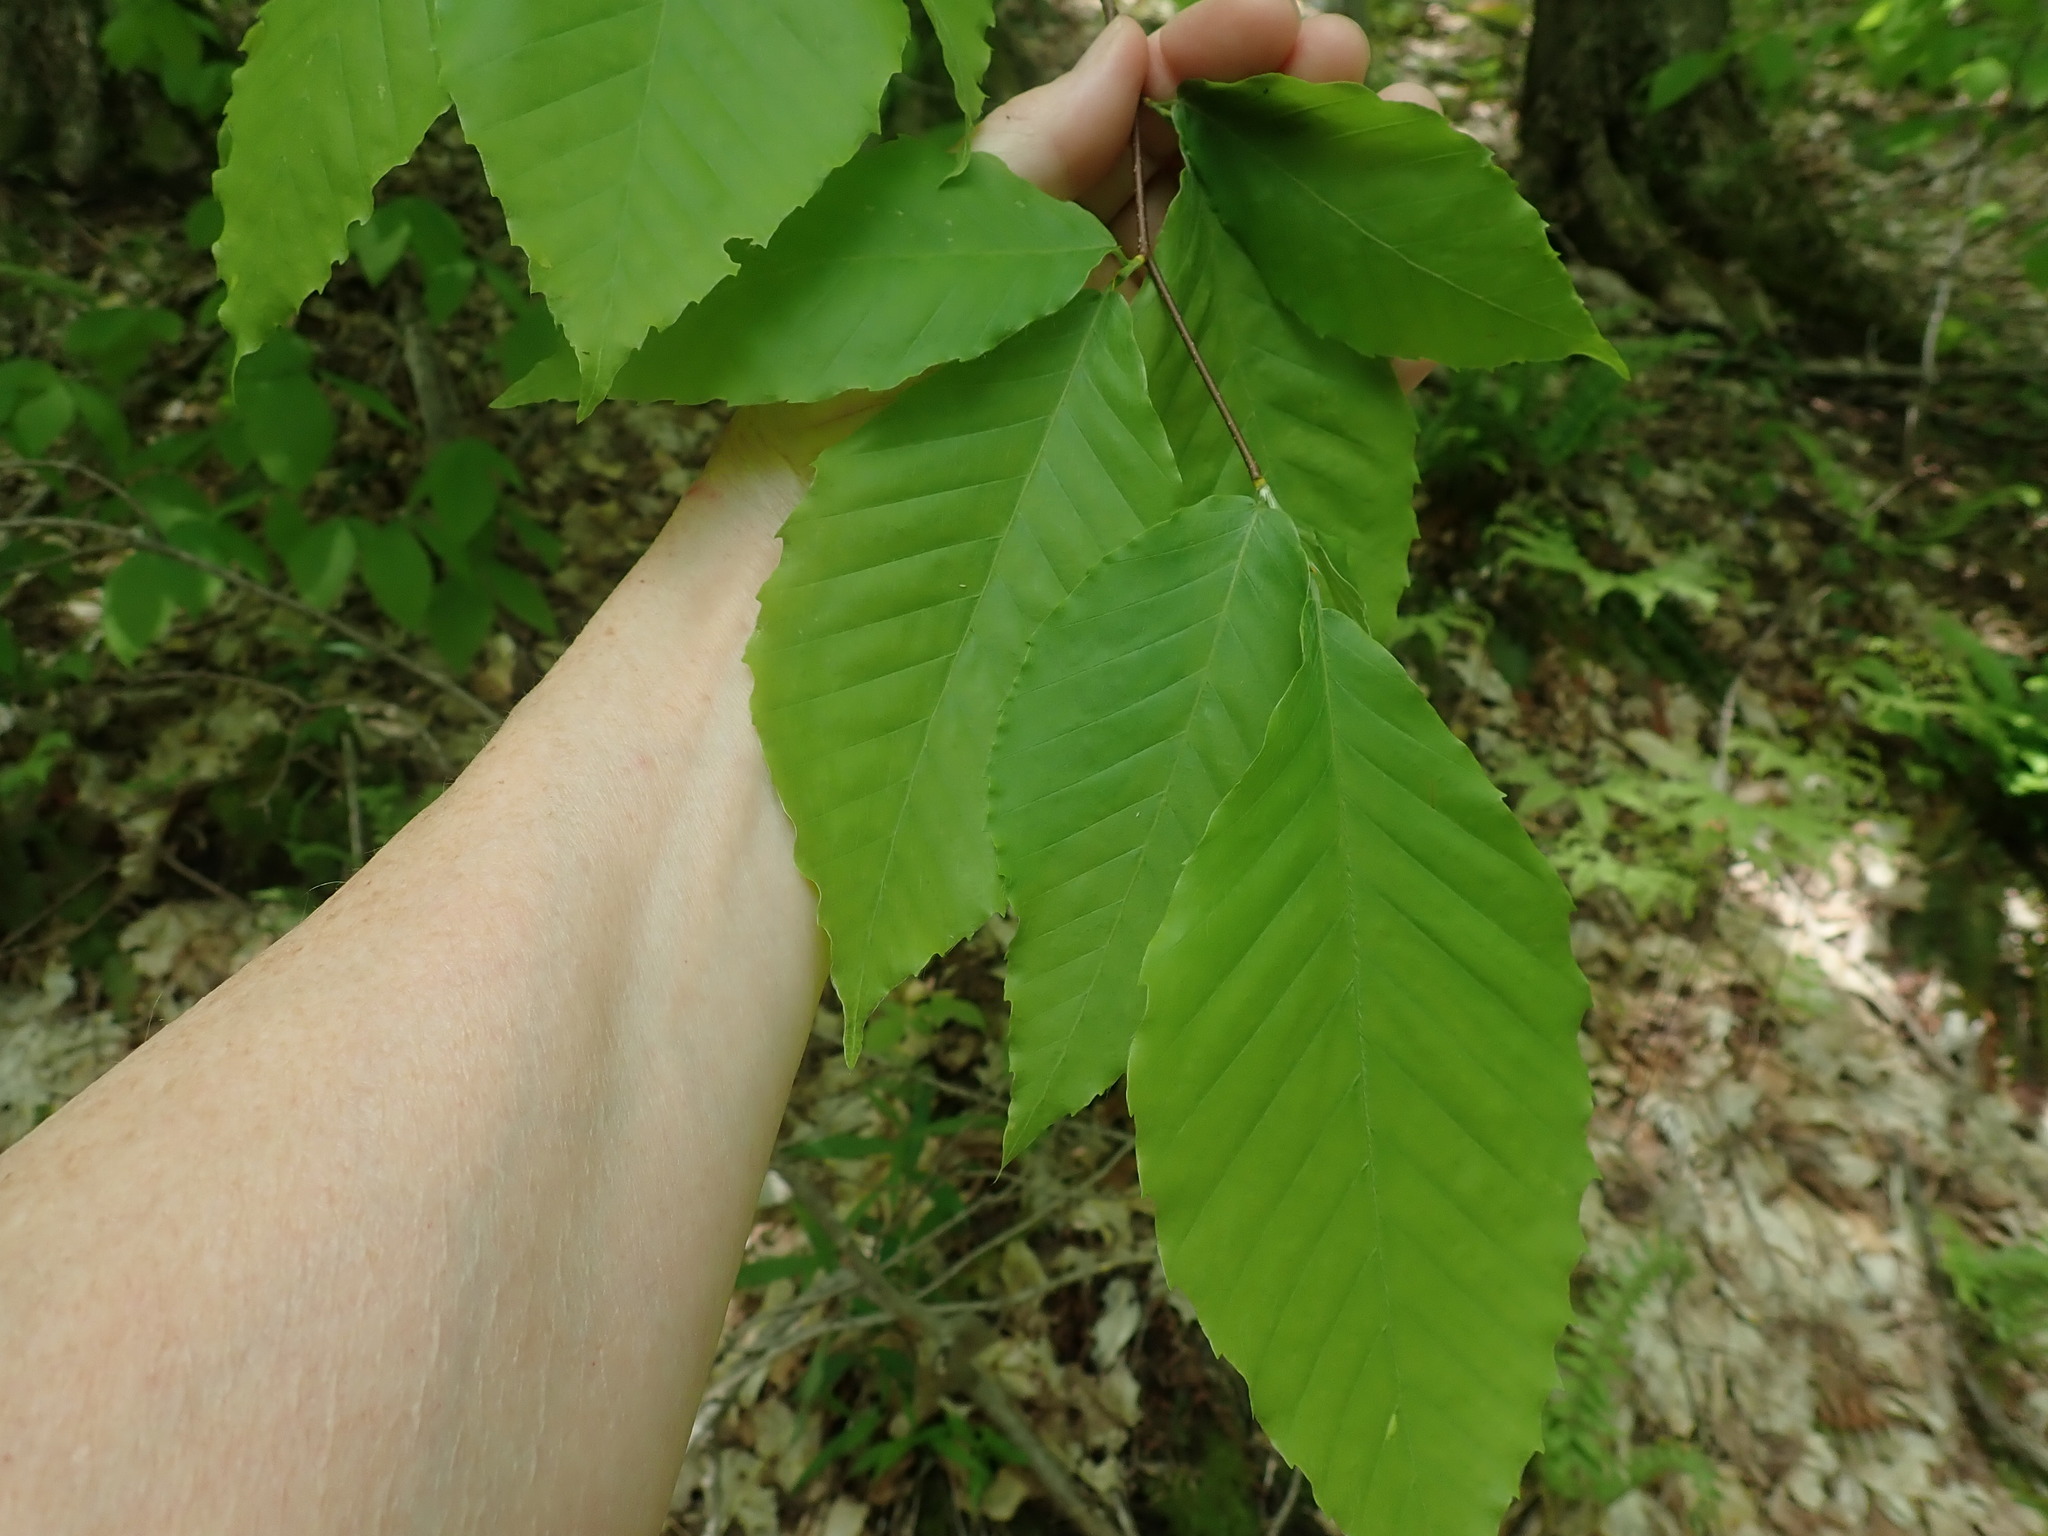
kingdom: Plantae
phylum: Tracheophyta
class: Magnoliopsida
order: Fagales
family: Fagaceae
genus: Fagus
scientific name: Fagus grandifolia
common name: American beech
